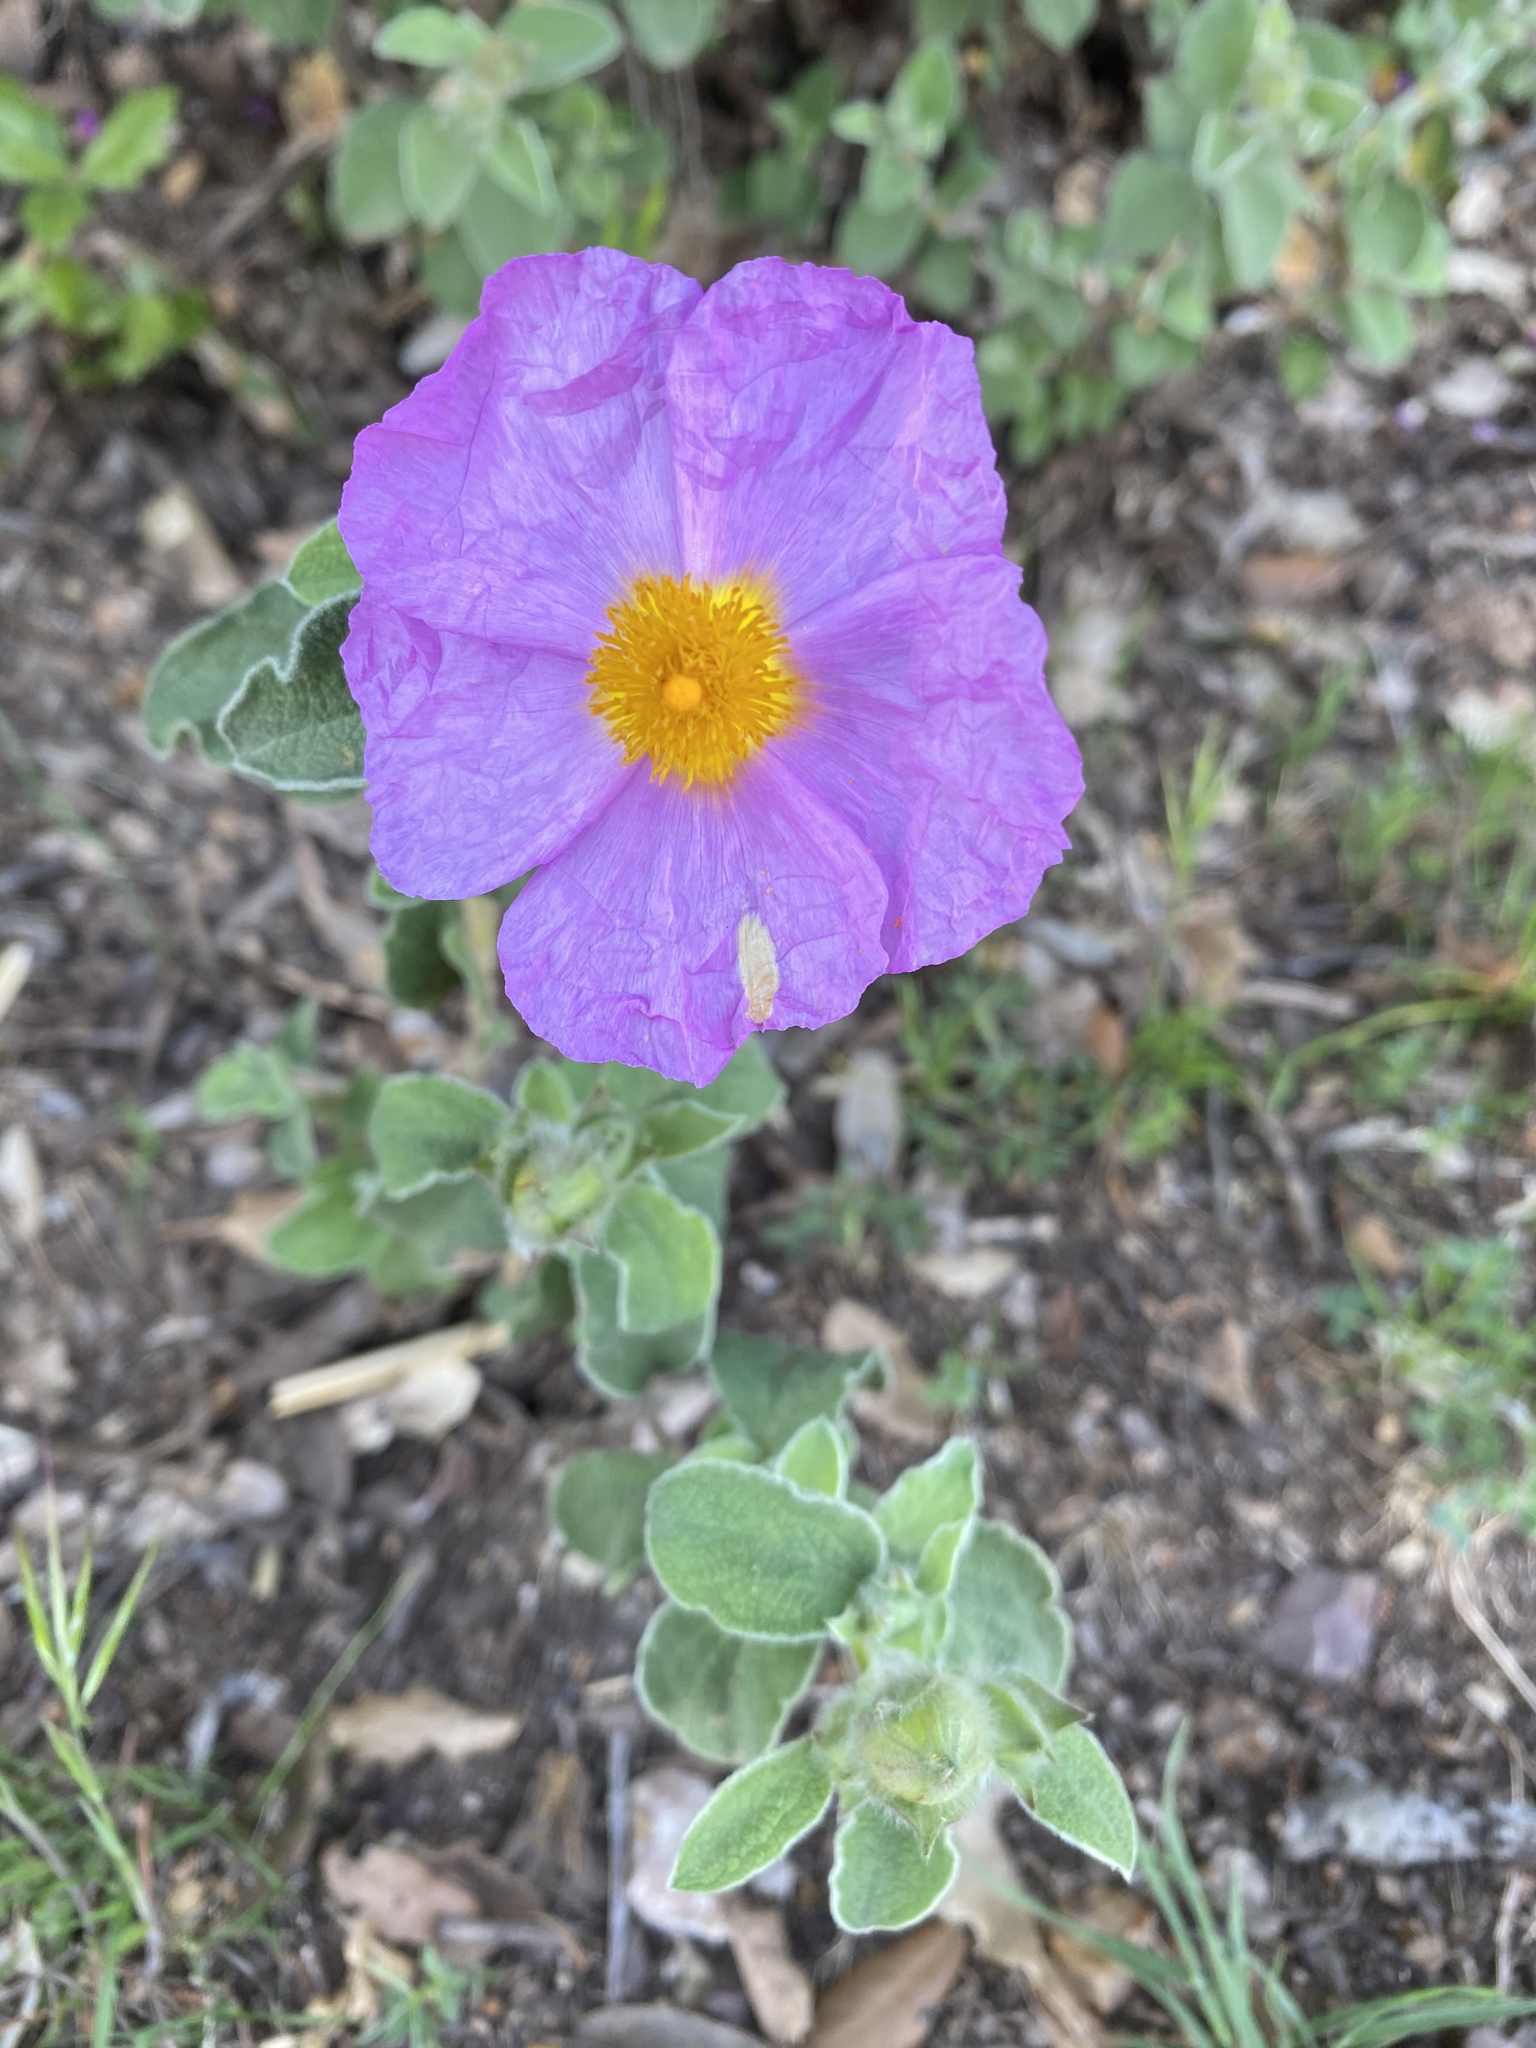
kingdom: Plantae
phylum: Tracheophyta
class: Magnoliopsida
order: Malvales
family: Cistaceae
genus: Cistus
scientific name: Cistus creticus
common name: Cretan rockrose
